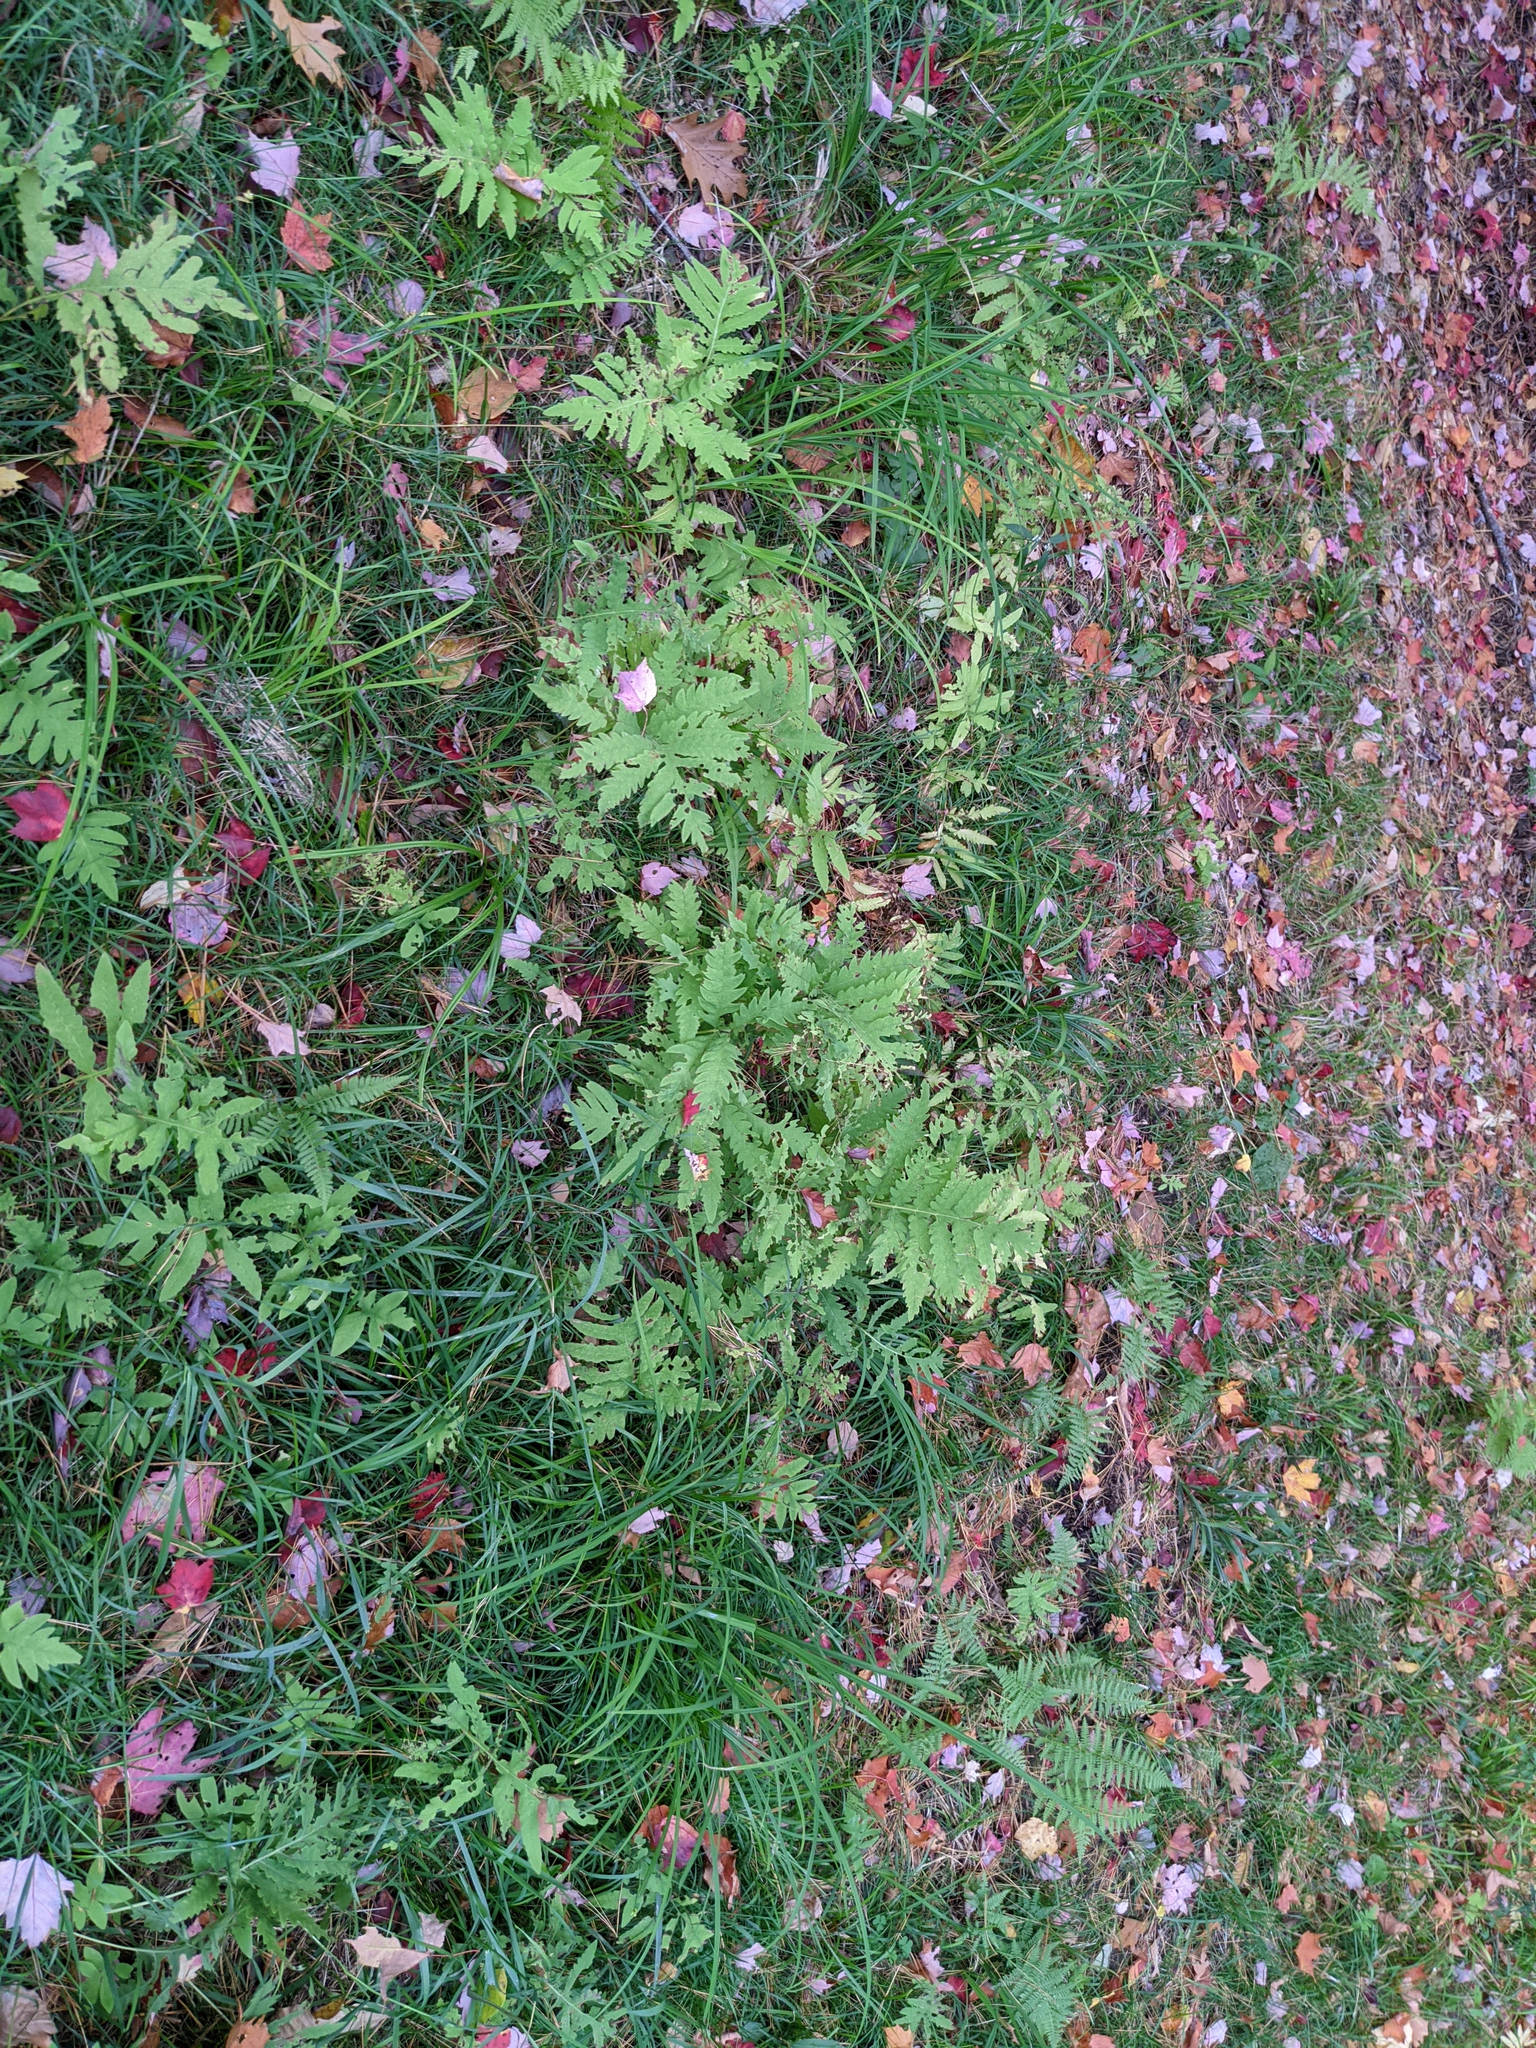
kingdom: Plantae
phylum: Tracheophyta
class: Polypodiopsida
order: Polypodiales
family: Onocleaceae
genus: Onoclea
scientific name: Onoclea sensibilis
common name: Sensitive fern
